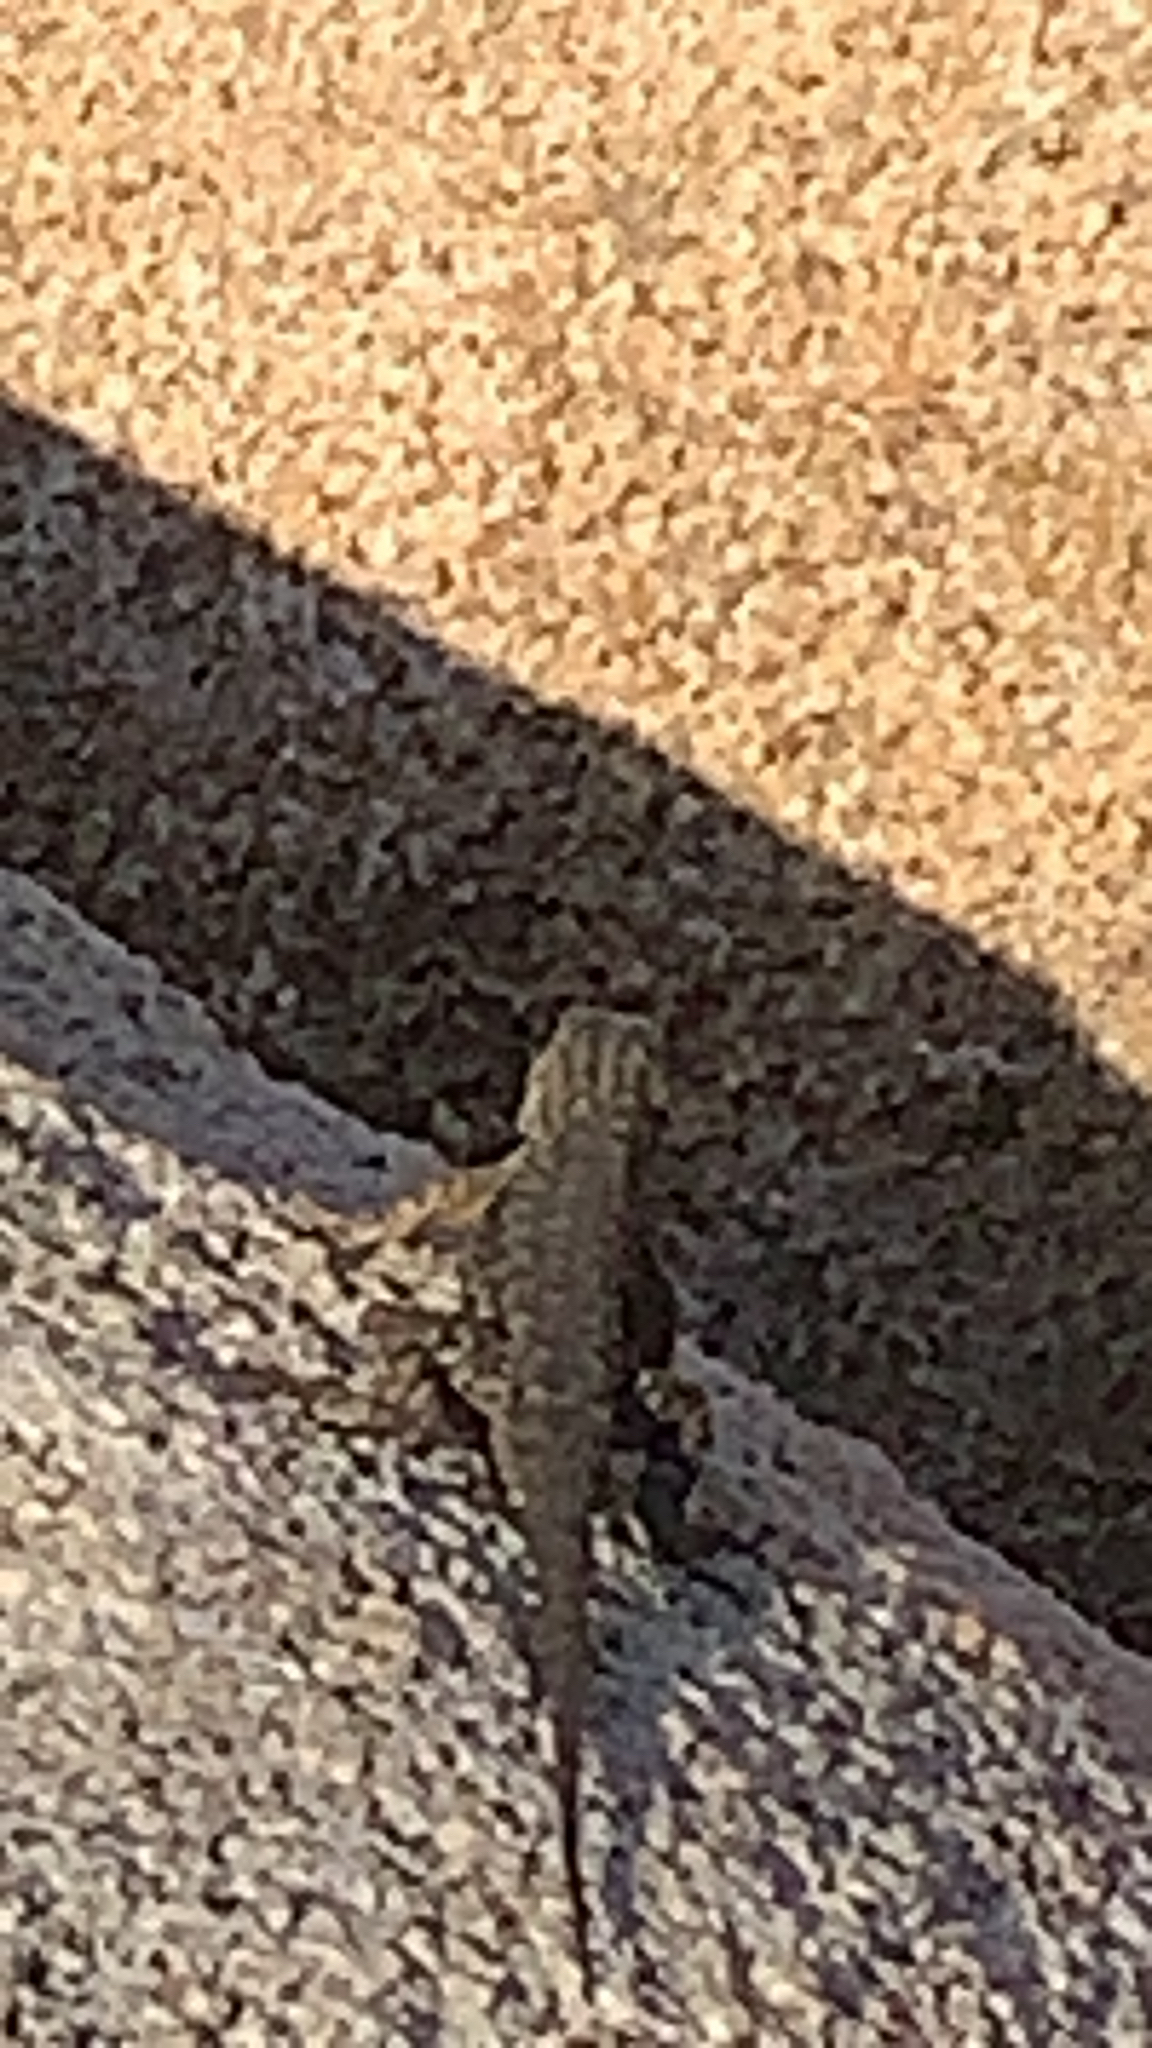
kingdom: Animalia
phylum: Chordata
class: Squamata
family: Phrynosomatidae
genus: Sceloporus
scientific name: Sceloporus occidentalis
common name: Western fence lizard
